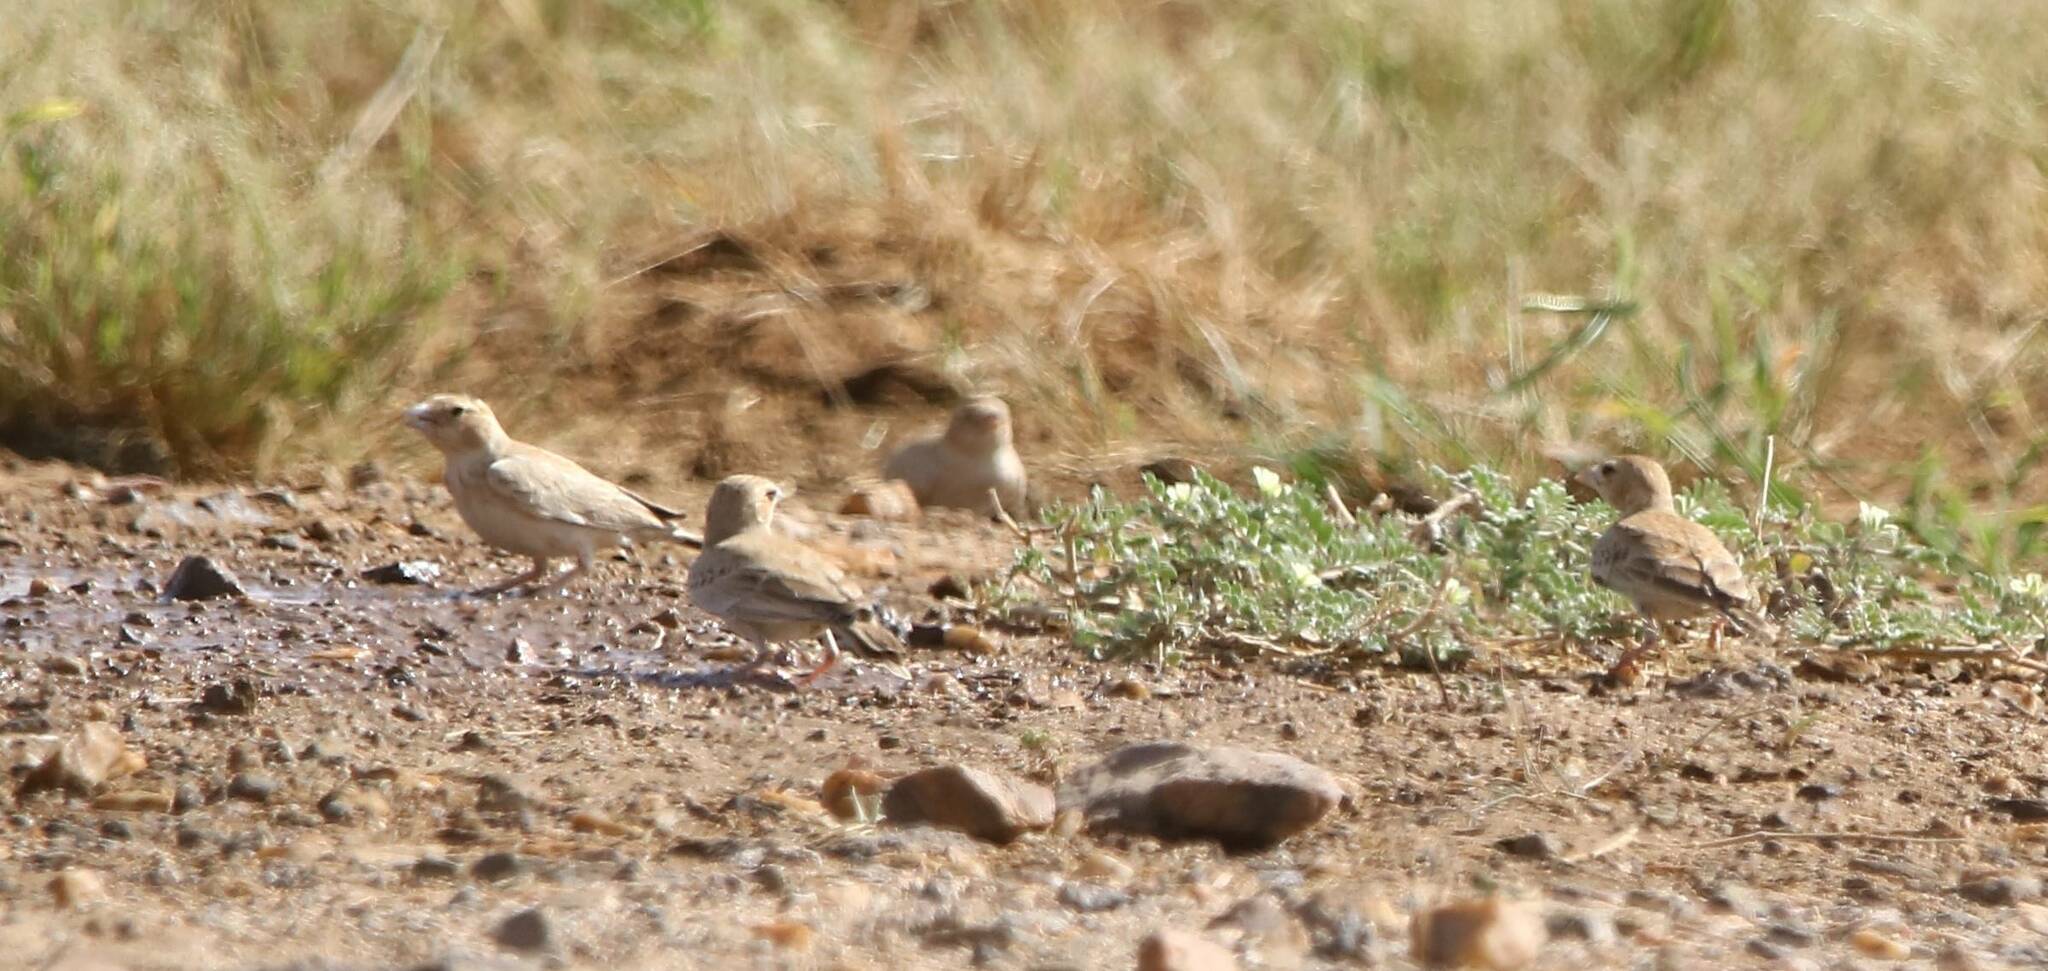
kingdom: Animalia
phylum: Chordata
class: Aves
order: Passeriformes
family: Alaudidae
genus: Eremopterix
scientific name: Eremopterix nigriceps
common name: Black-crowned sparrow-lark
